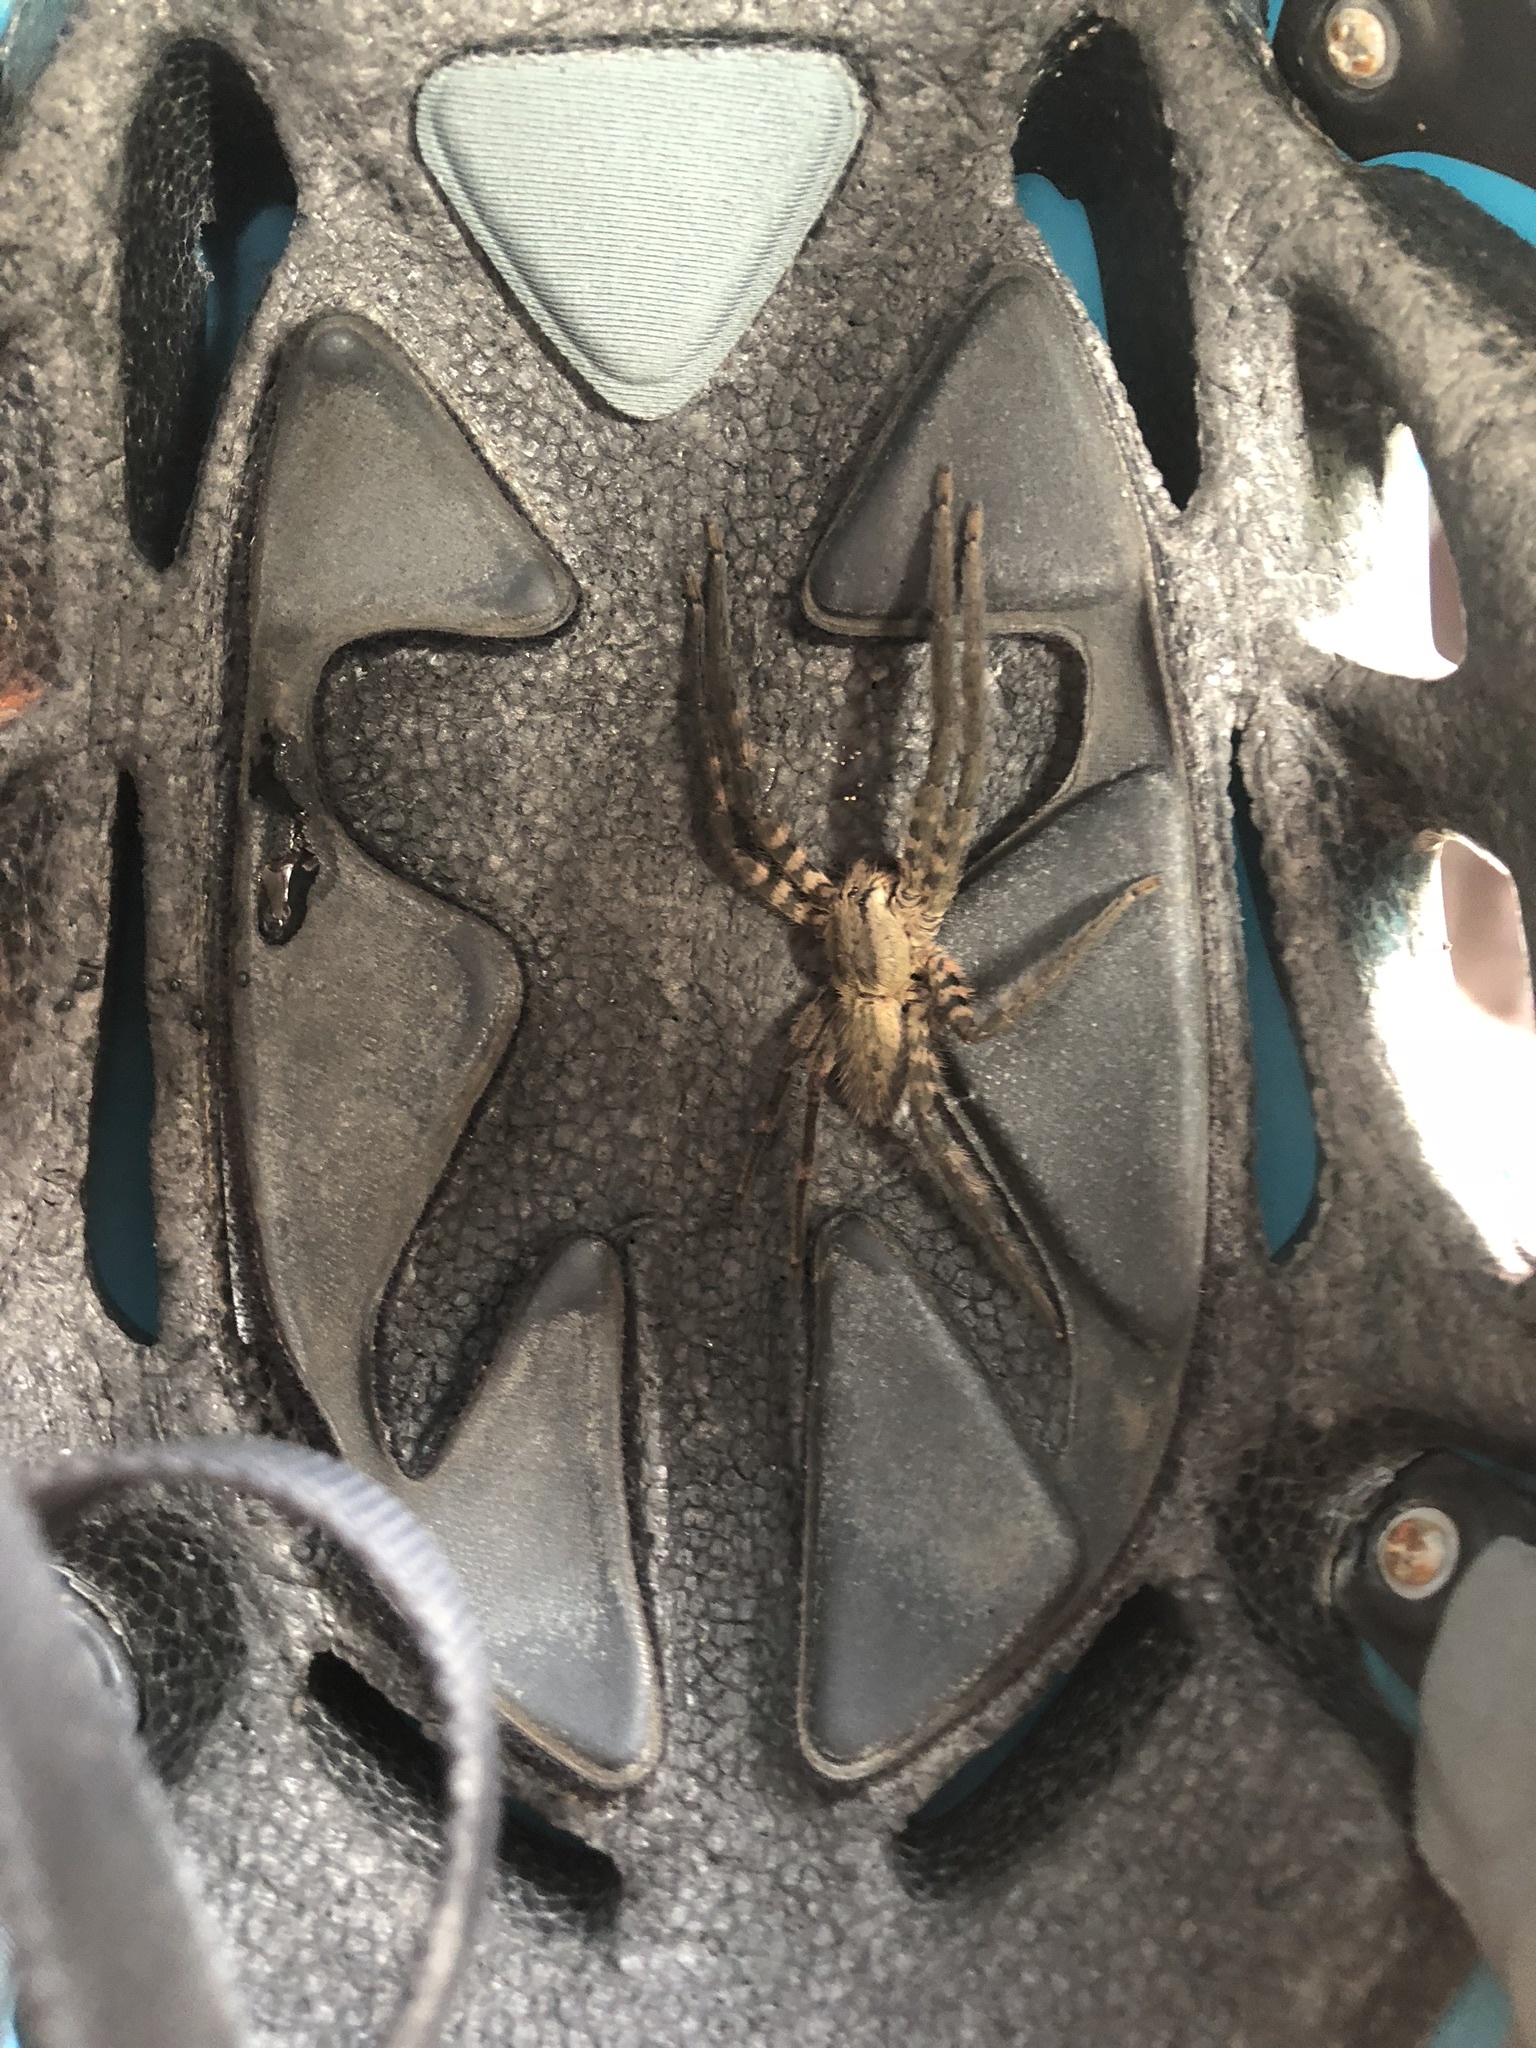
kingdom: Animalia
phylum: Arthropoda
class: Arachnida
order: Araneae
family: Trechaleidae
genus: Cupiennius
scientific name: Cupiennius salei
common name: Wandering spiders
